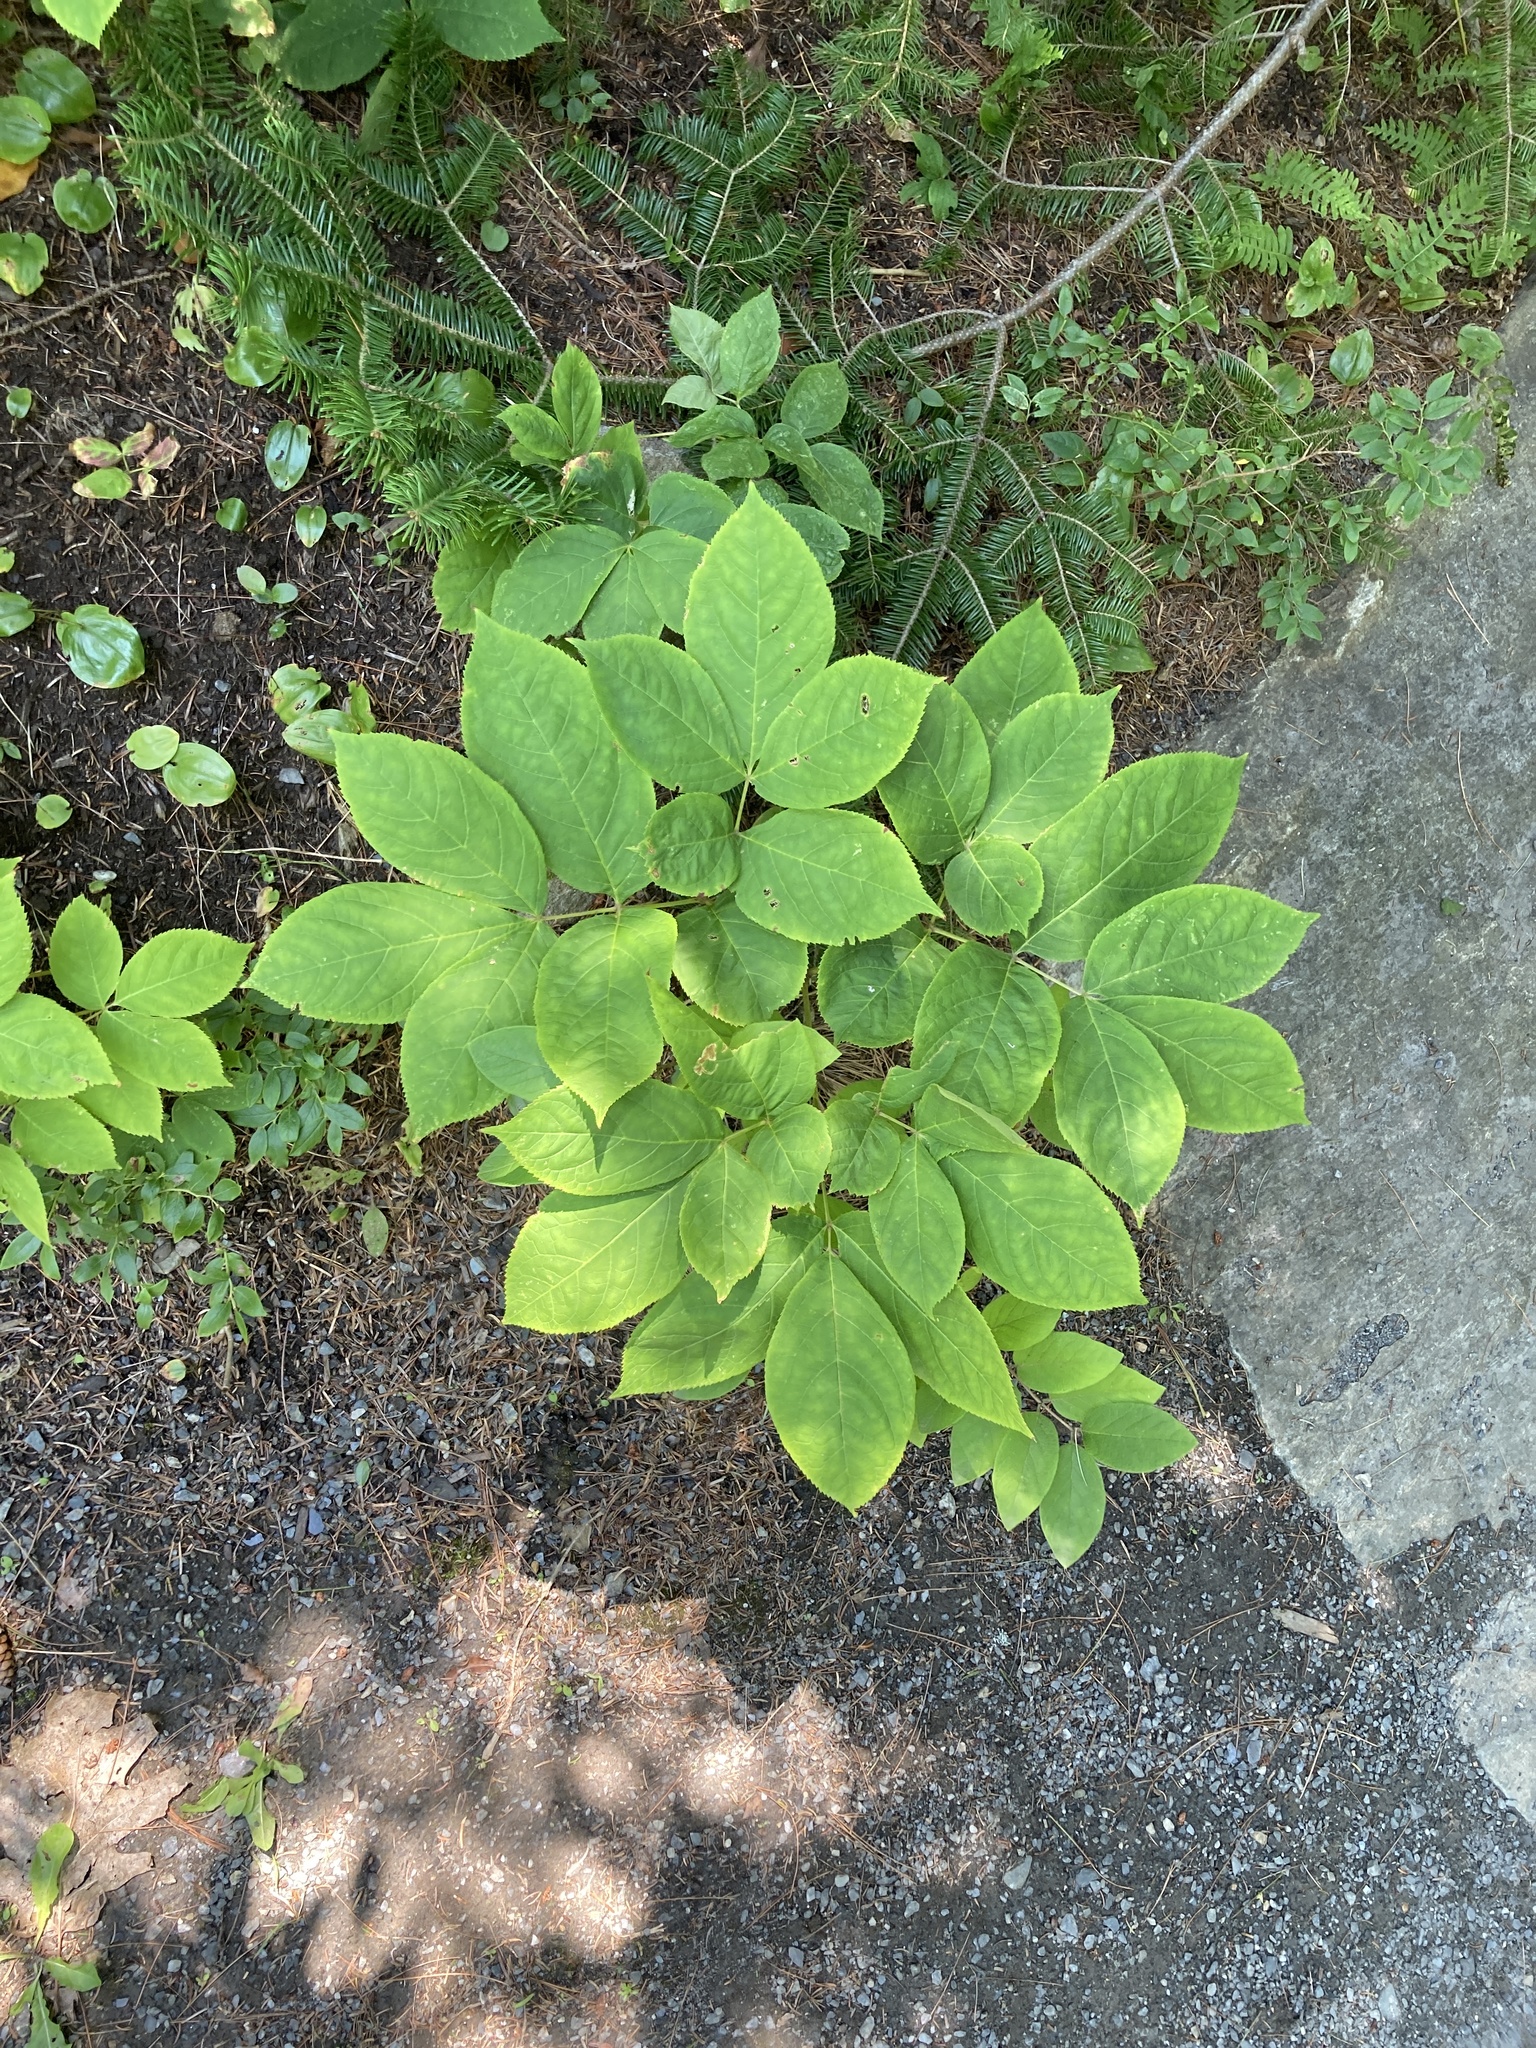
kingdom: Plantae
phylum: Tracheophyta
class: Magnoliopsida
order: Apiales
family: Araliaceae
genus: Aralia
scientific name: Aralia nudicaulis
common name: Wild sarsaparilla
